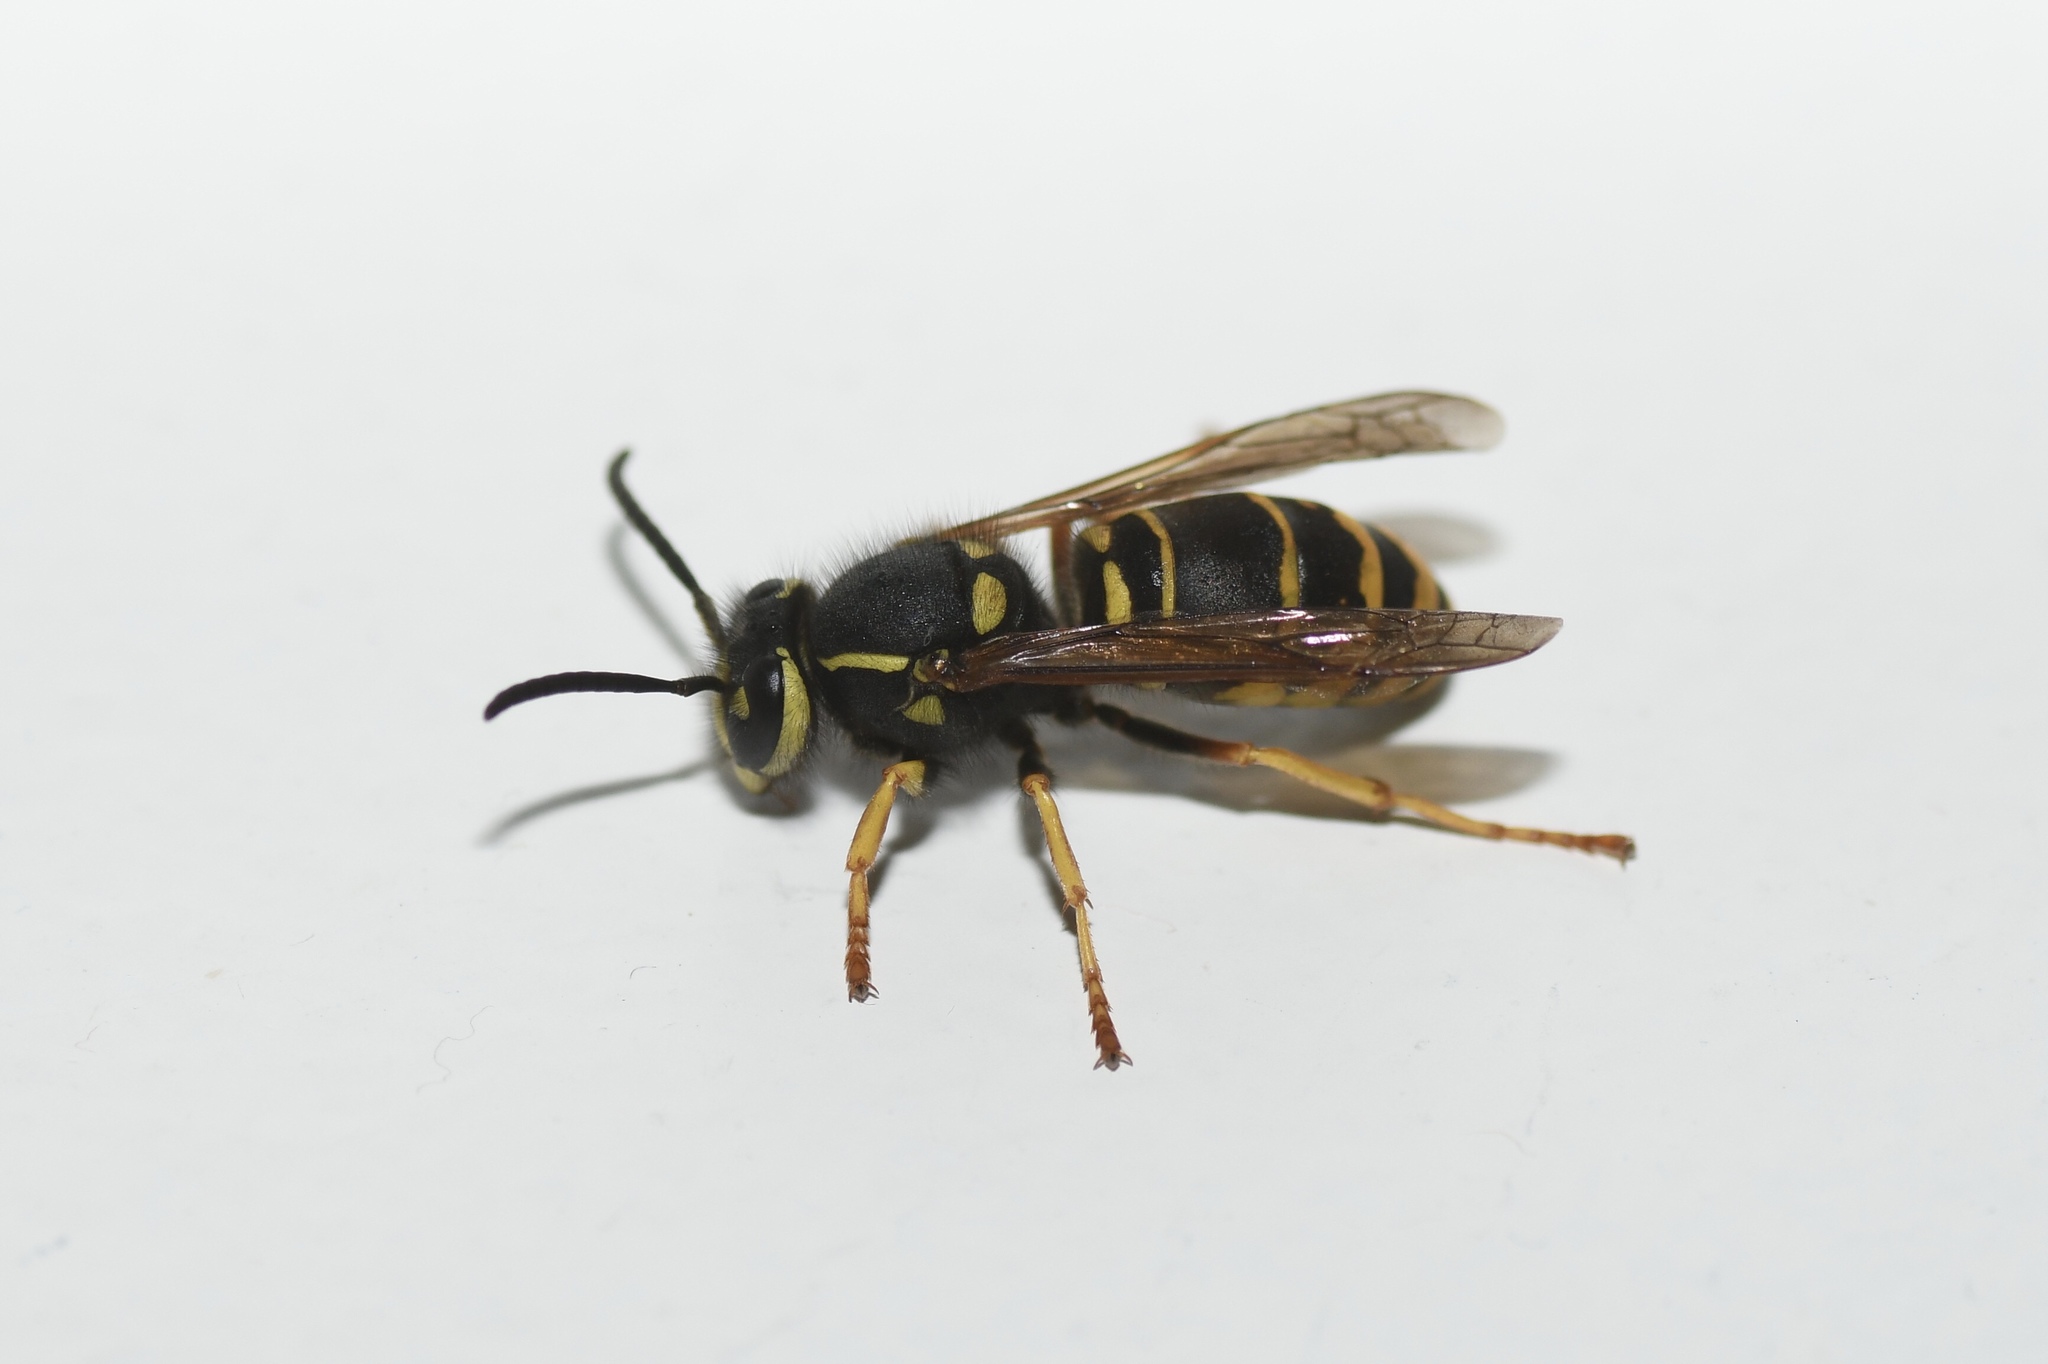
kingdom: Animalia
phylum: Arthropoda
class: Insecta
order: Hymenoptera
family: Vespidae
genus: Vespula
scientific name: Vespula vidua
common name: Widow yellowjacket
